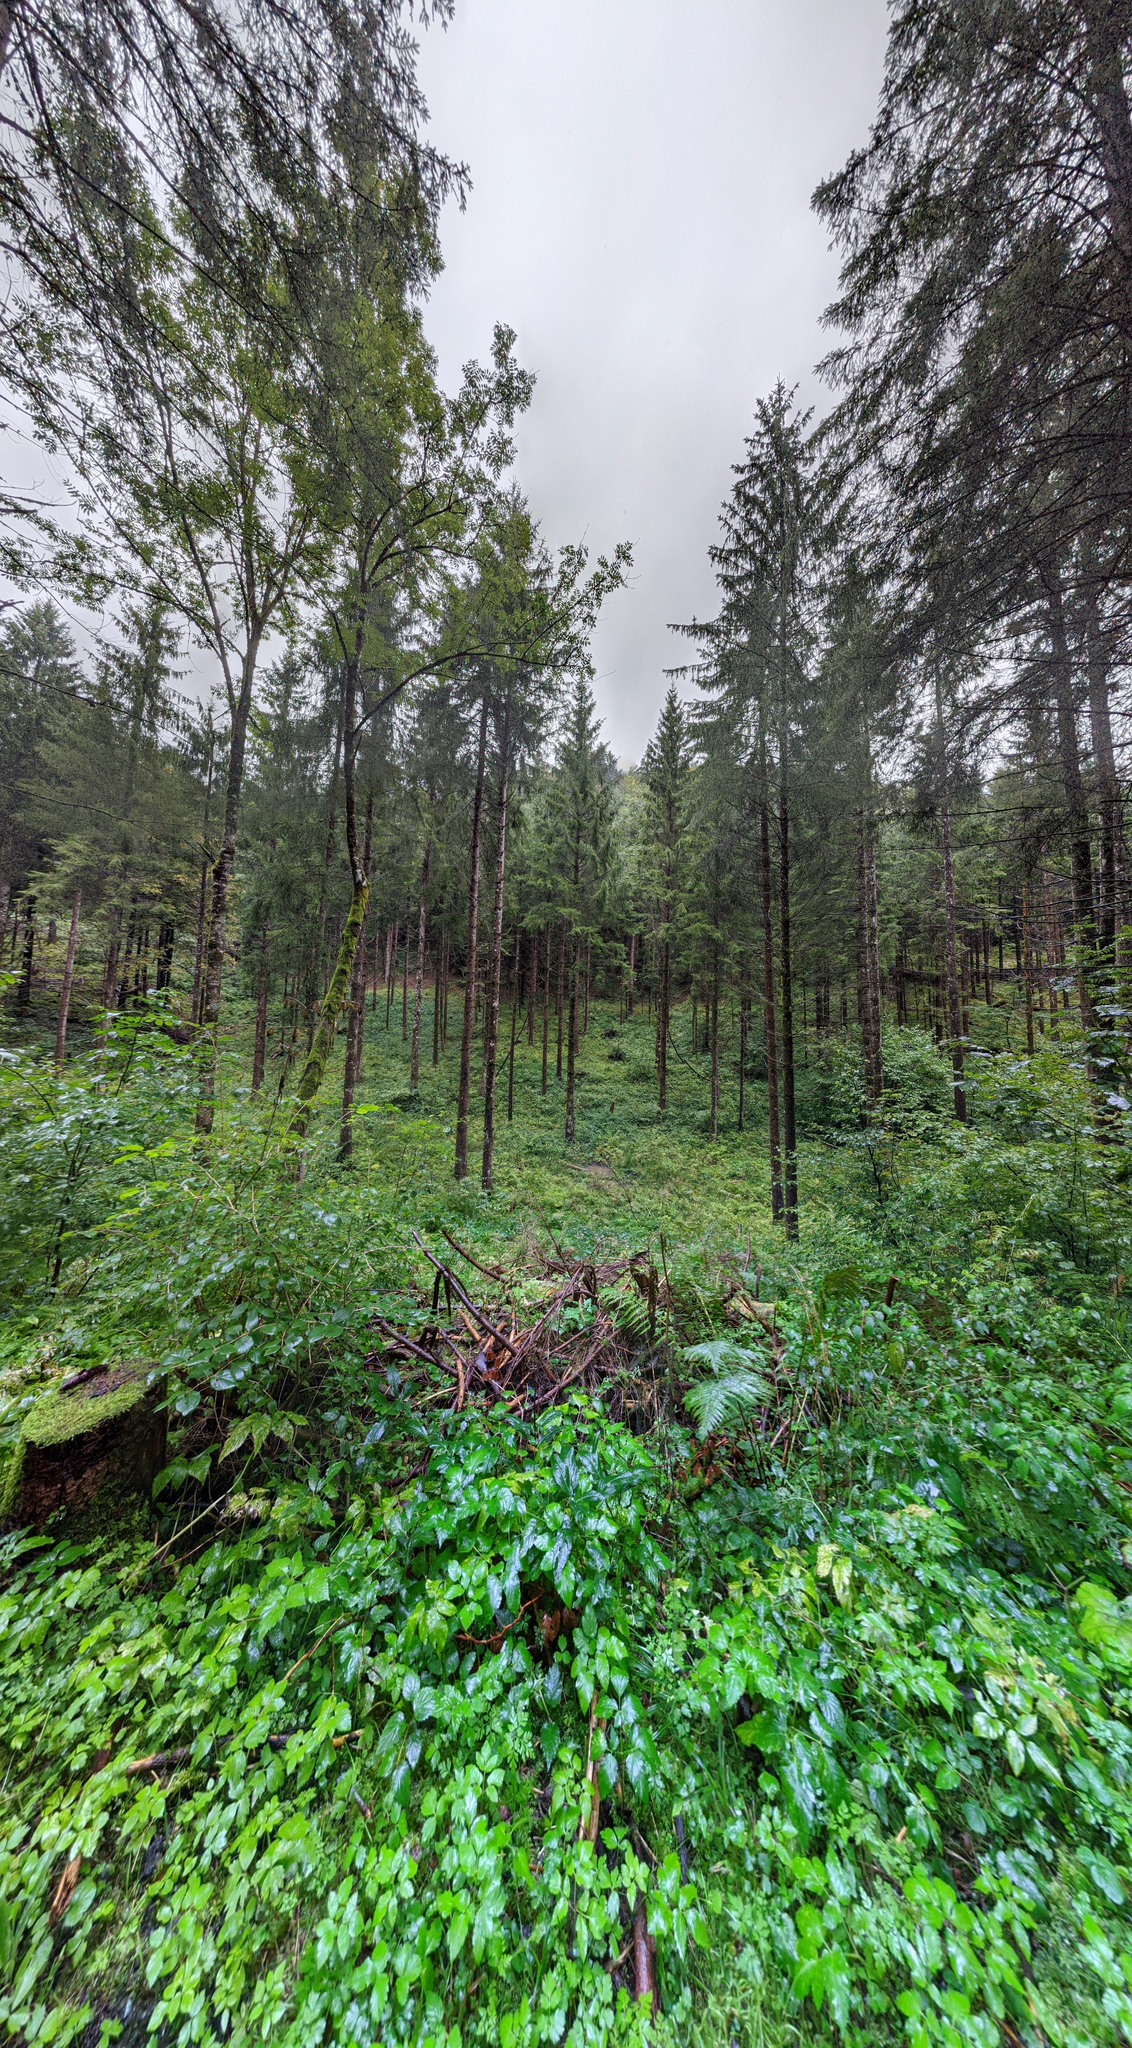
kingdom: Plantae
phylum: Tracheophyta
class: Pinopsida
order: Pinales
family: Pinaceae
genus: Picea
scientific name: Picea abies
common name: Norway spruce
